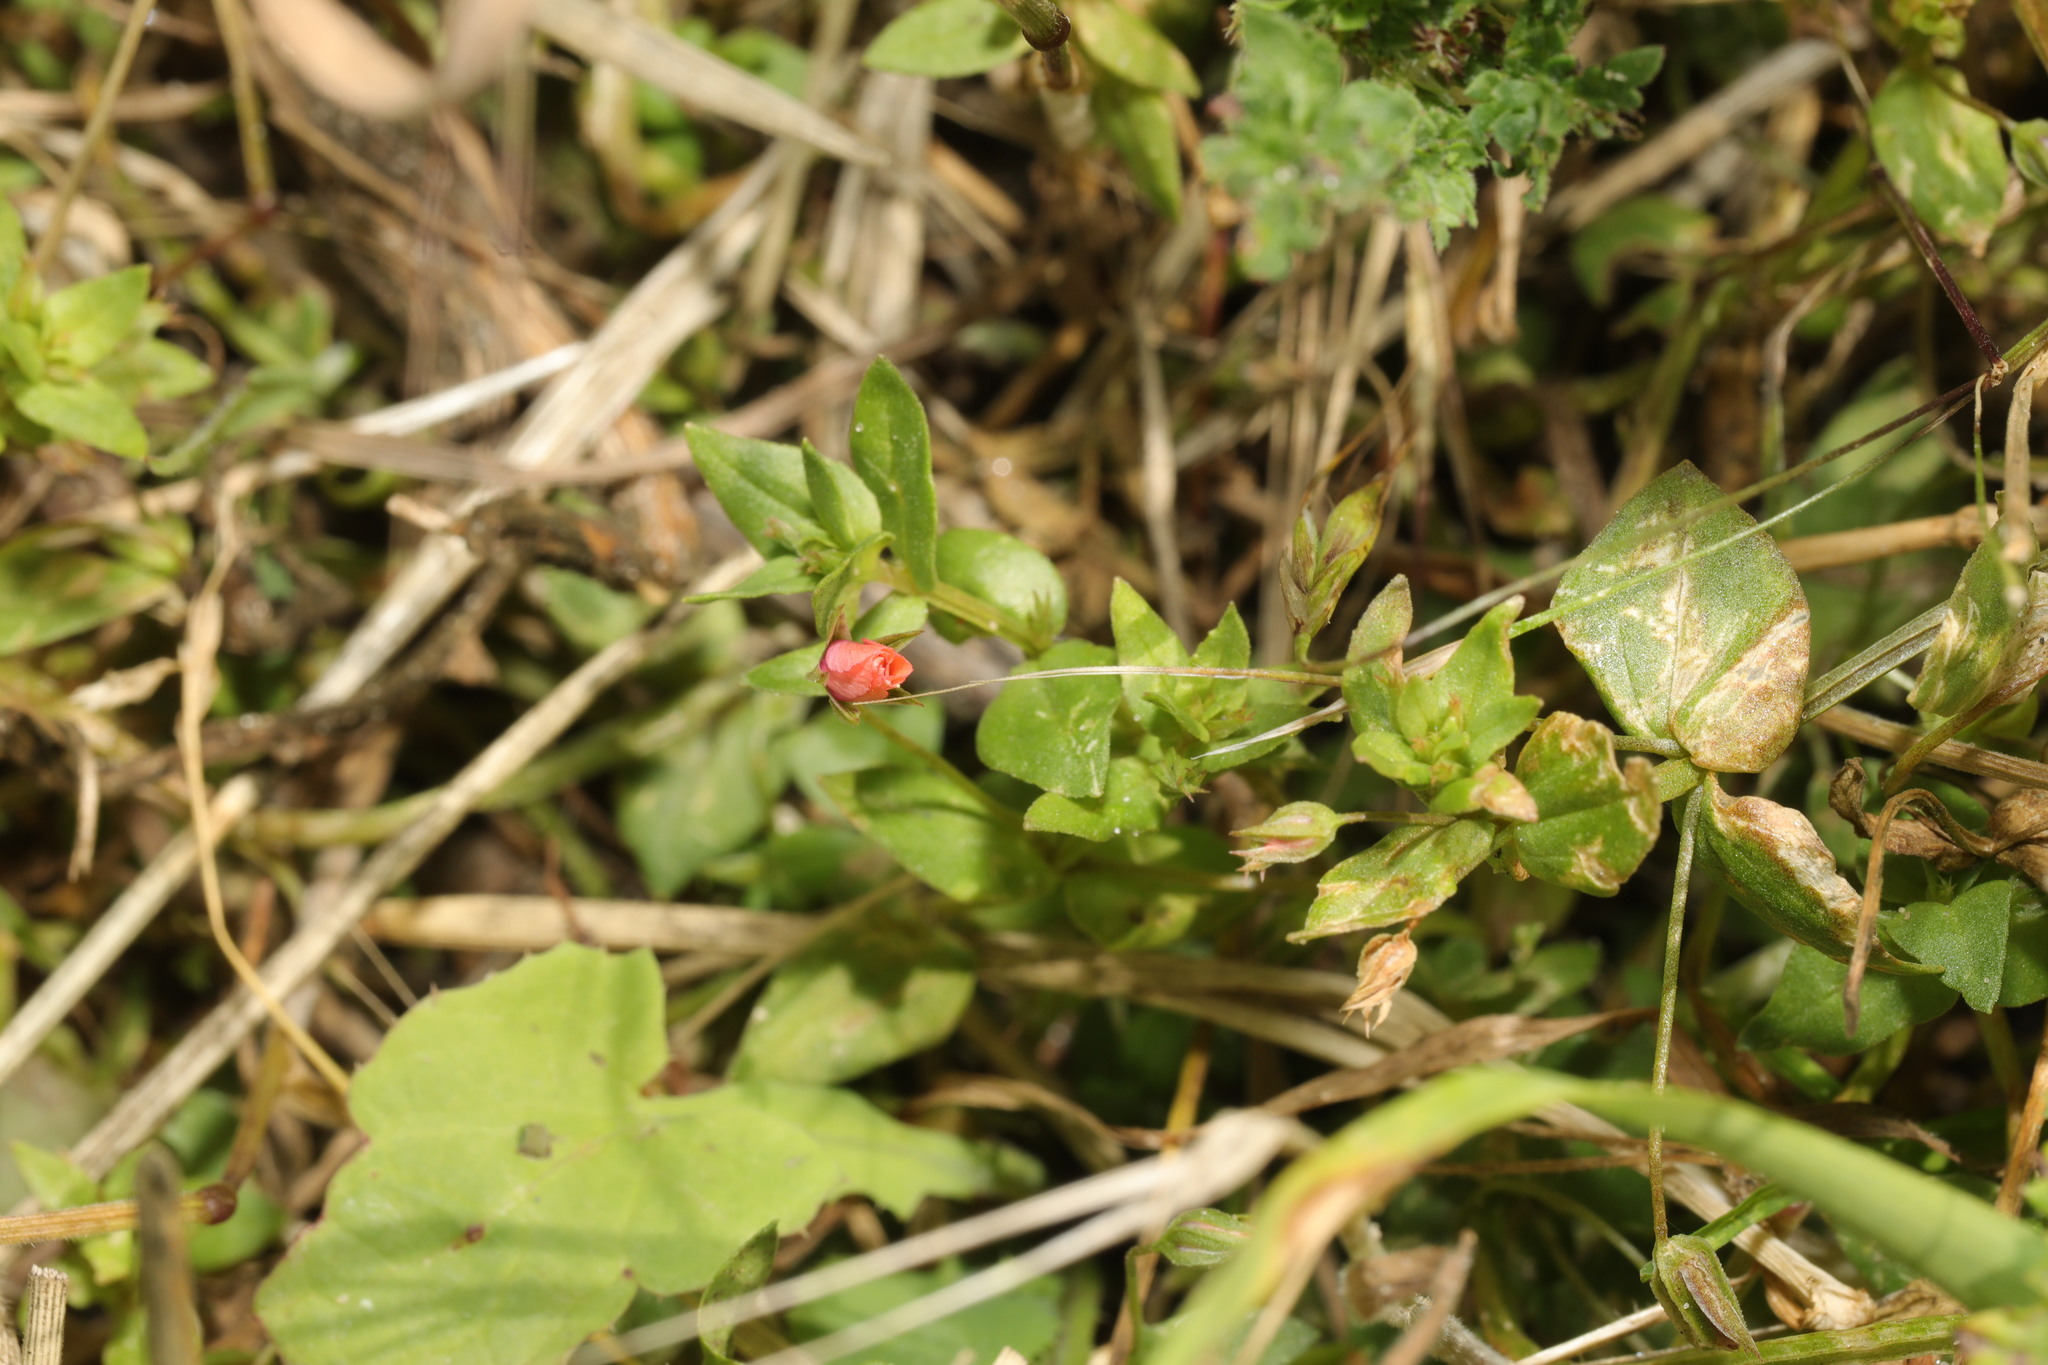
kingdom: Plantae
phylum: Tracheophyta
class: Magnoliopsida
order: Ericales
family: Primulaceae
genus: Lysimachia
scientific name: Lysimachia arvensis
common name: Scarlet pimpernel
